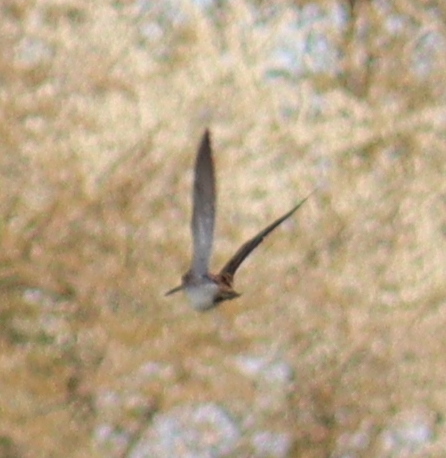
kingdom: Animalia
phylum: Chordata
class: Aves
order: Charadriiformes
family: Scolopacidae
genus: Gallinago
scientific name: Gallinago gallinago
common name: Common snipe
